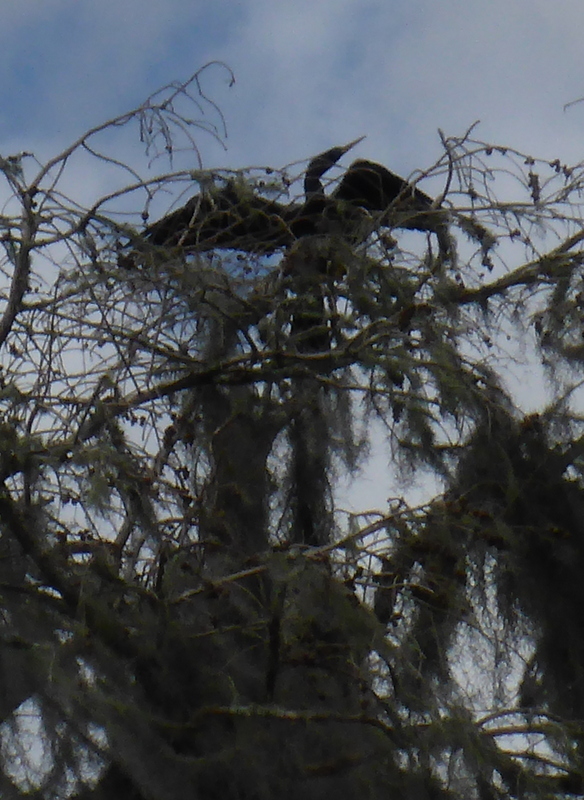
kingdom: Animalia
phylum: Chordata
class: Aves
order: Suliformes
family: Anhingidae
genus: Anhinga
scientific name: Anhinga anhinga
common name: Anhinga
